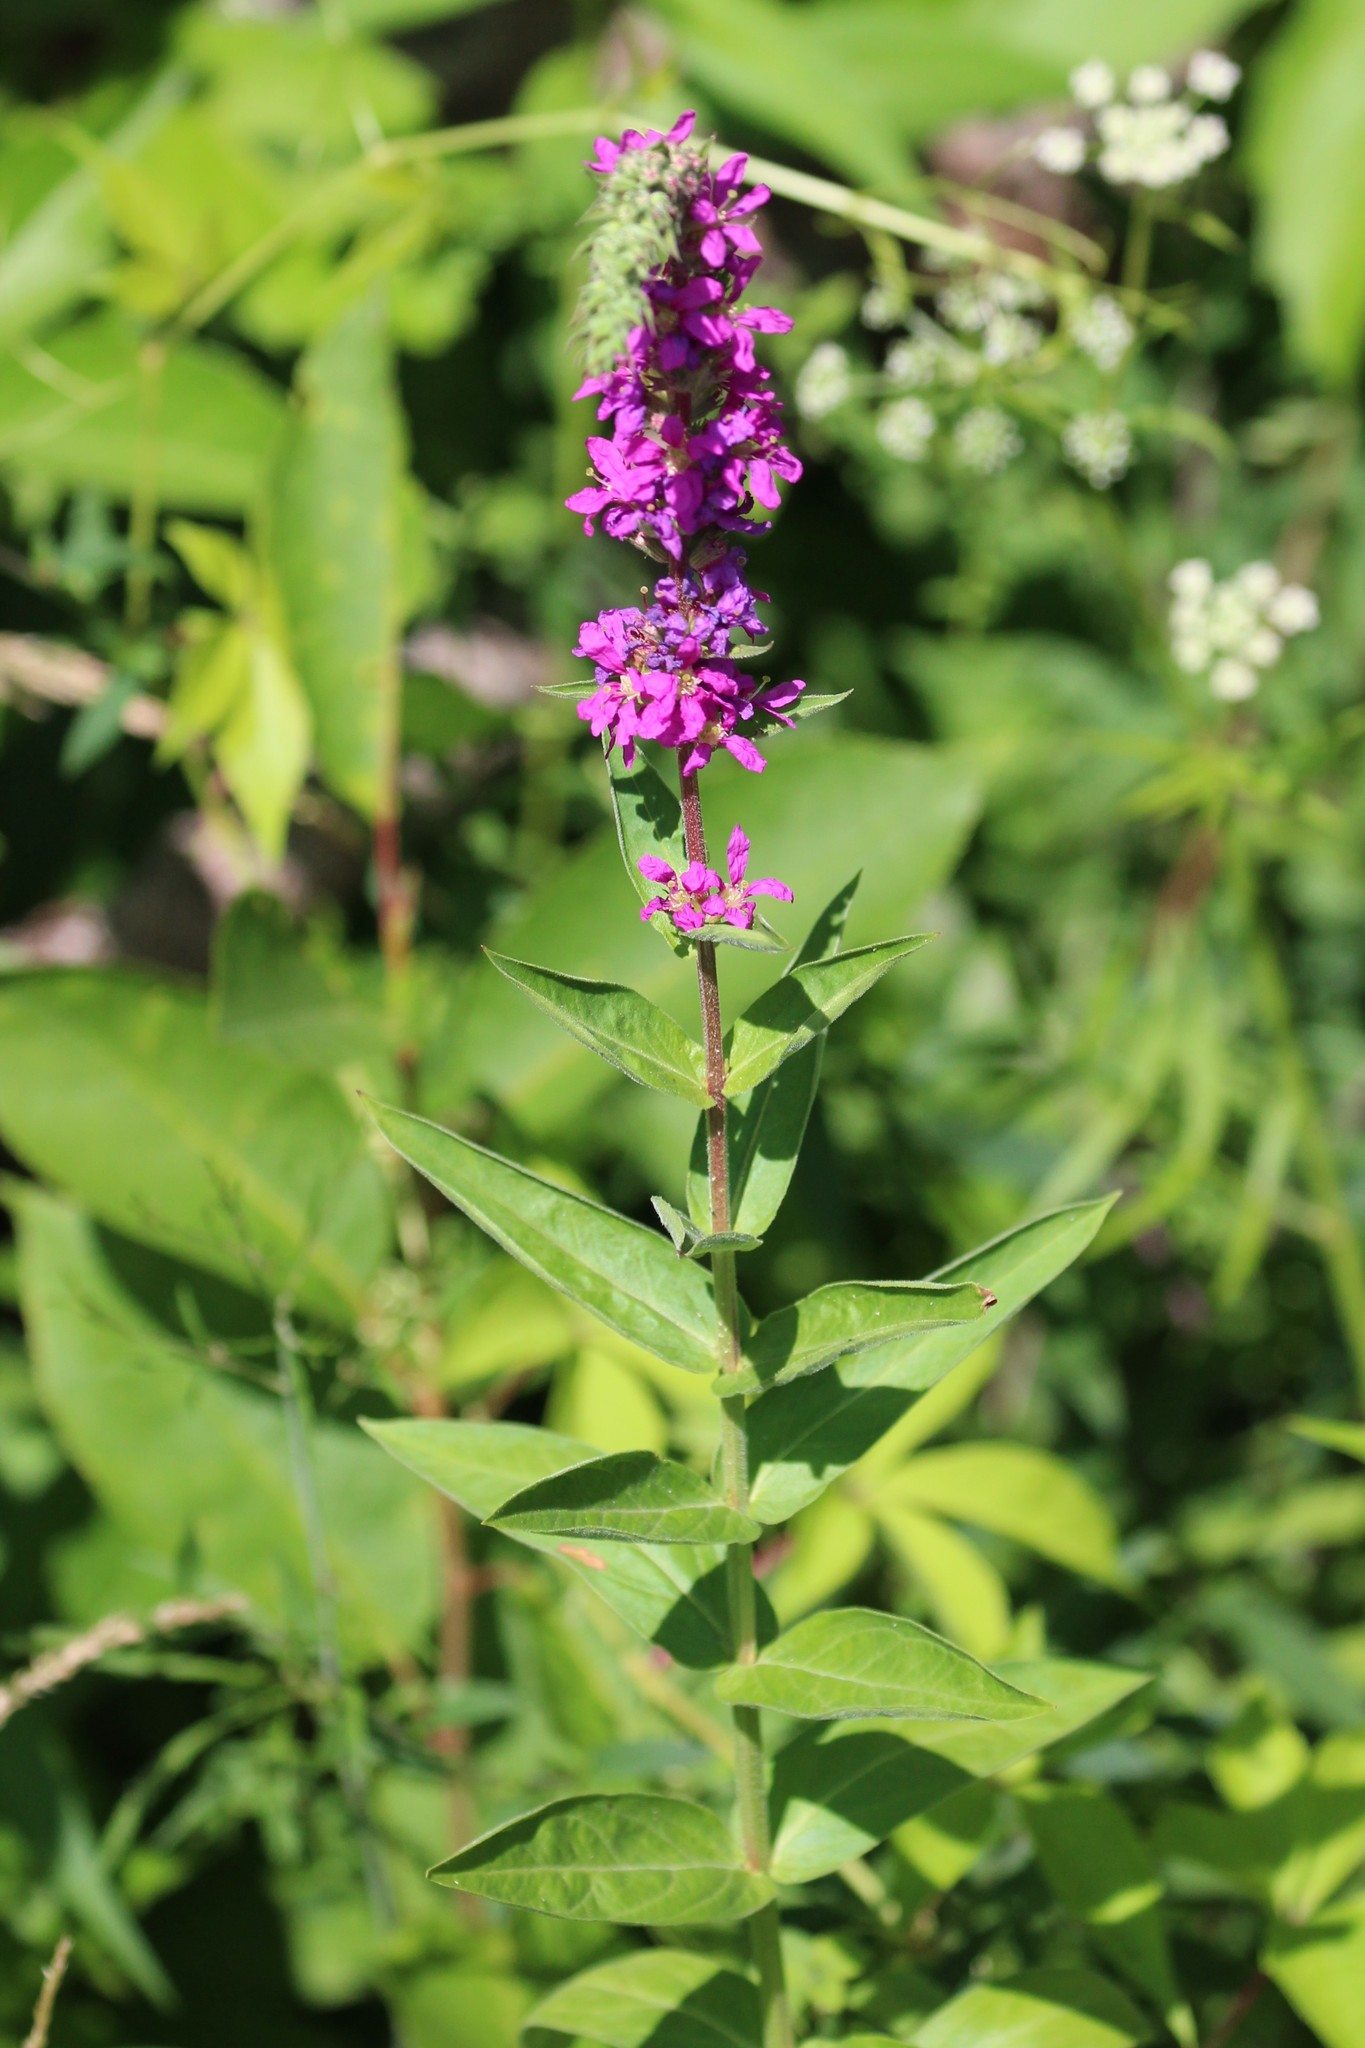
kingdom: Plantae
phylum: Tracheophyta
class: Magnoliopsida
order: Myrtales
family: Lythraceae
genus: Lythrum
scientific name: Lythrum salicaria
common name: Purple loosestrife
